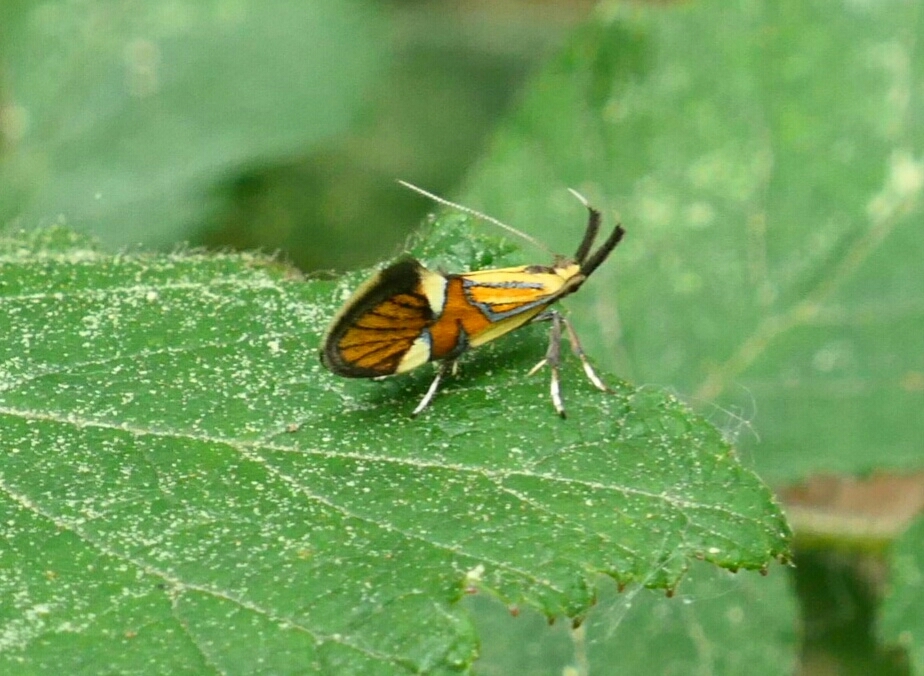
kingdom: Animalia
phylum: Arthropoda
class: Insecta
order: Lepidoptera
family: Oecophoridae
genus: Oecophora
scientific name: Oecophora Alabonia geoffrella
